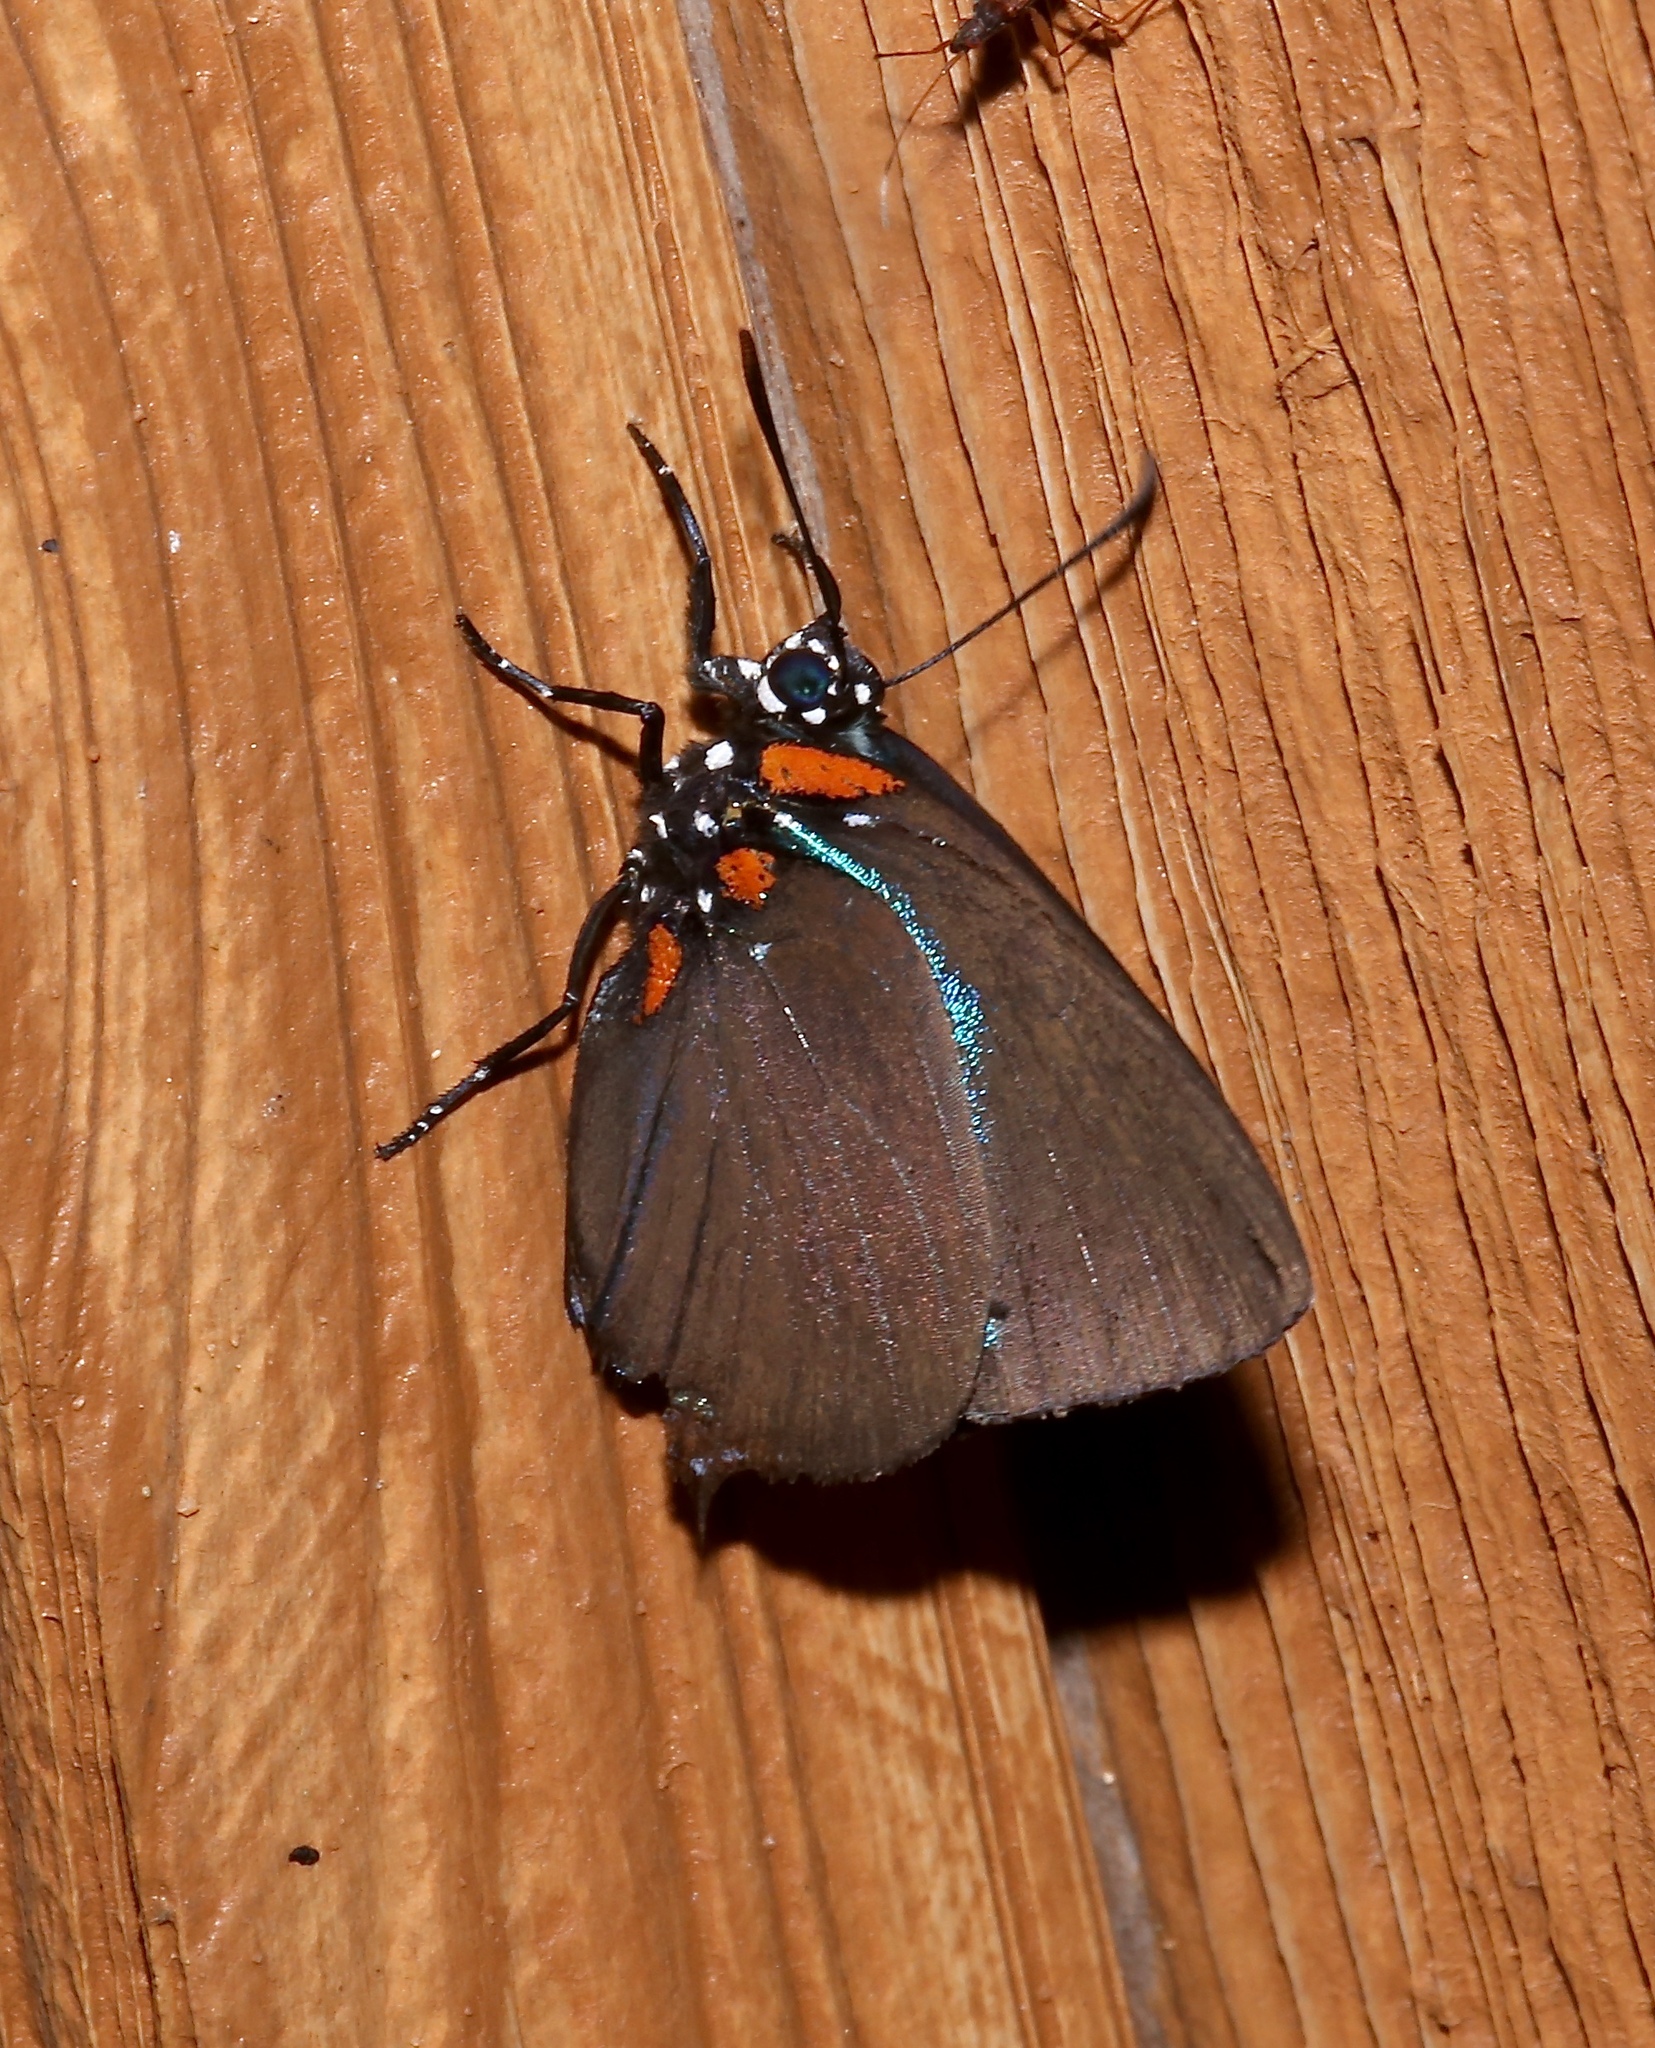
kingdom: Animalia
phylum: Arthropoda
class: Insecta
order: Lepidoptera
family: Lycaenidae
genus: Atlides
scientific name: Atlides halesus
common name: Great purple hairstreak
